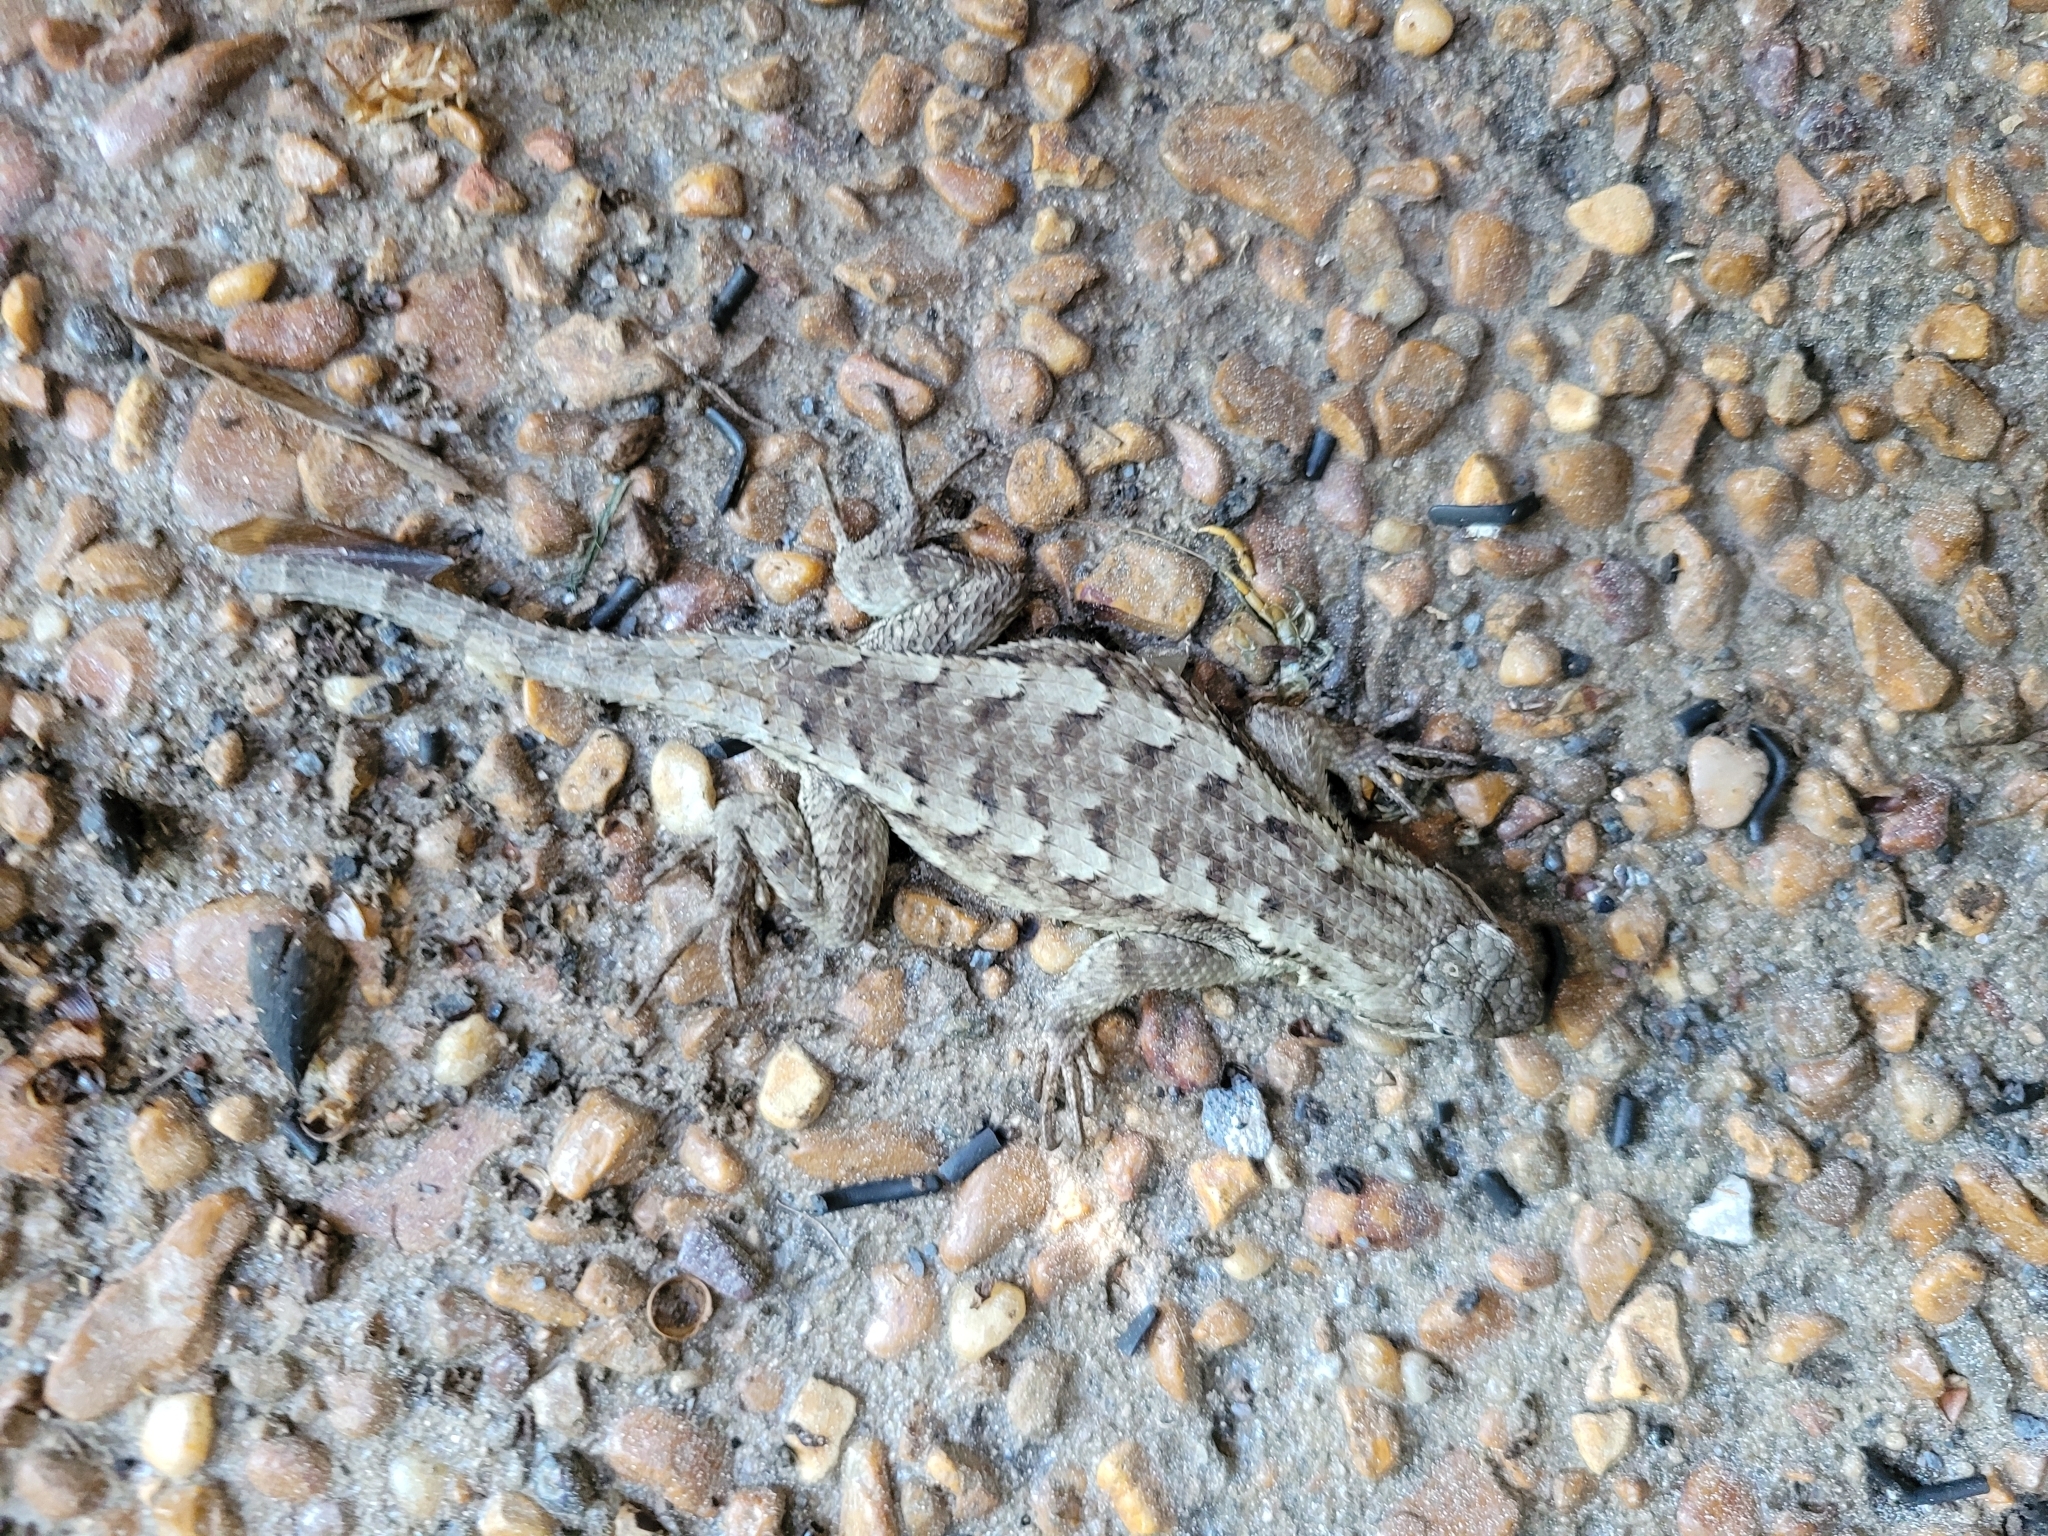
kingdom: Animalia
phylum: Chordata
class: Squamata
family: Phrynosomatidae
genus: Sceloporus
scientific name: Sceloporus undulatus
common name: Eastern fence lizard
